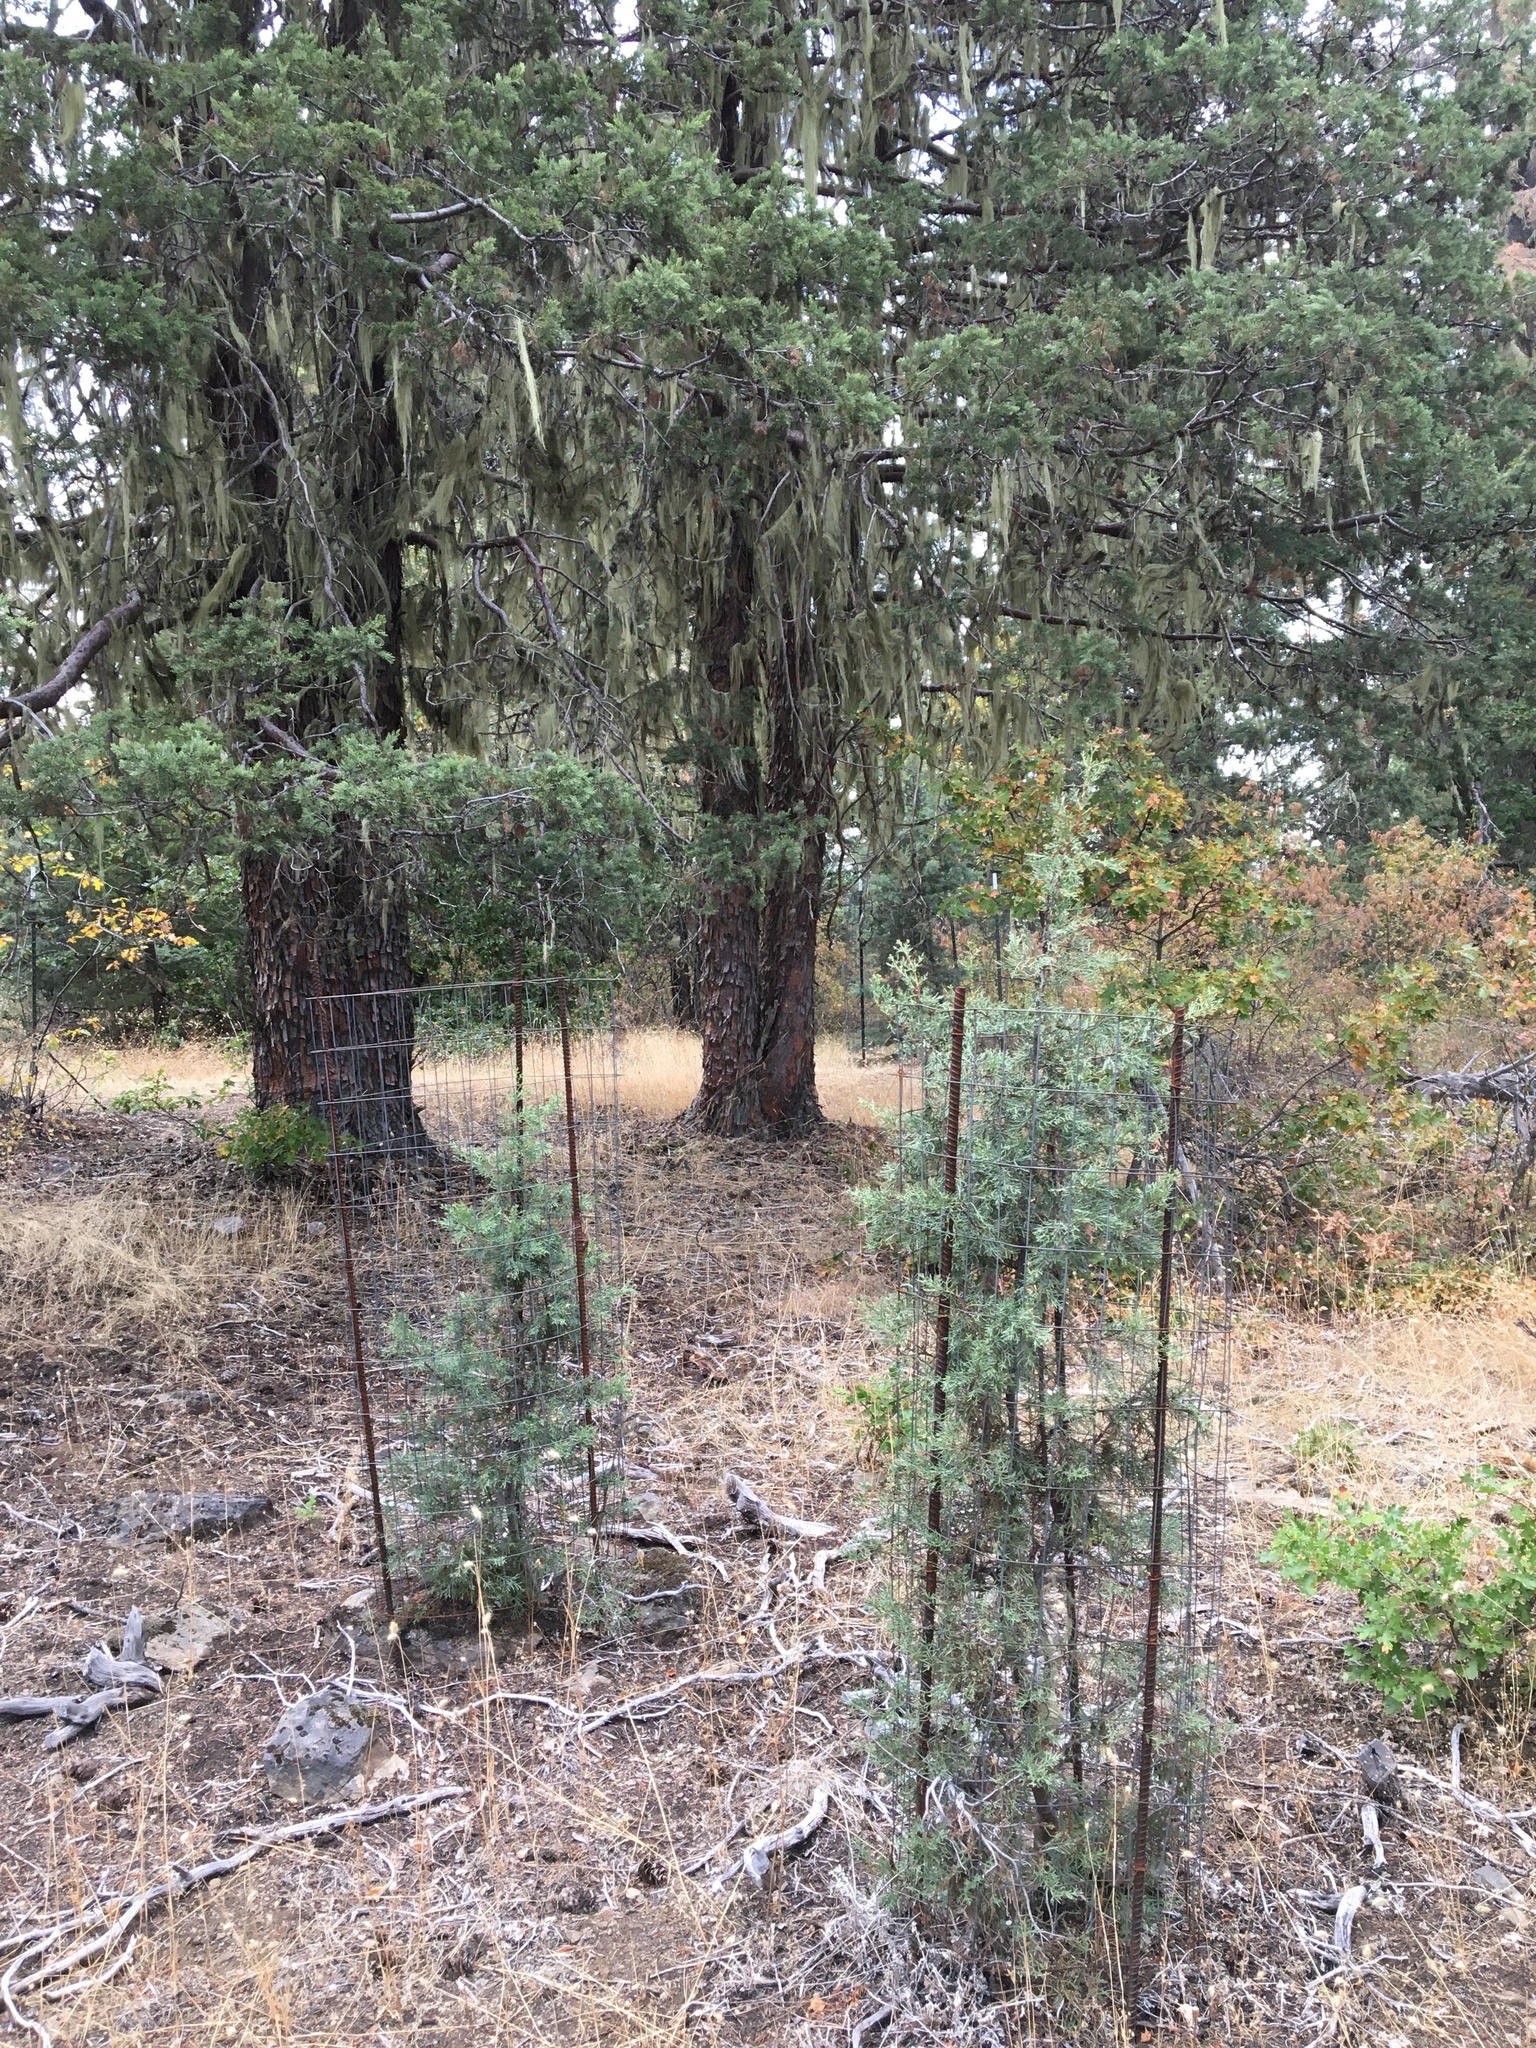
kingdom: Plantae
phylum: Tracheophyta
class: Pinopsida
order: Pinales
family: Cupressaceae
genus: Cupressus
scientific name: Cupressus bakeri
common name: Baker cypress
